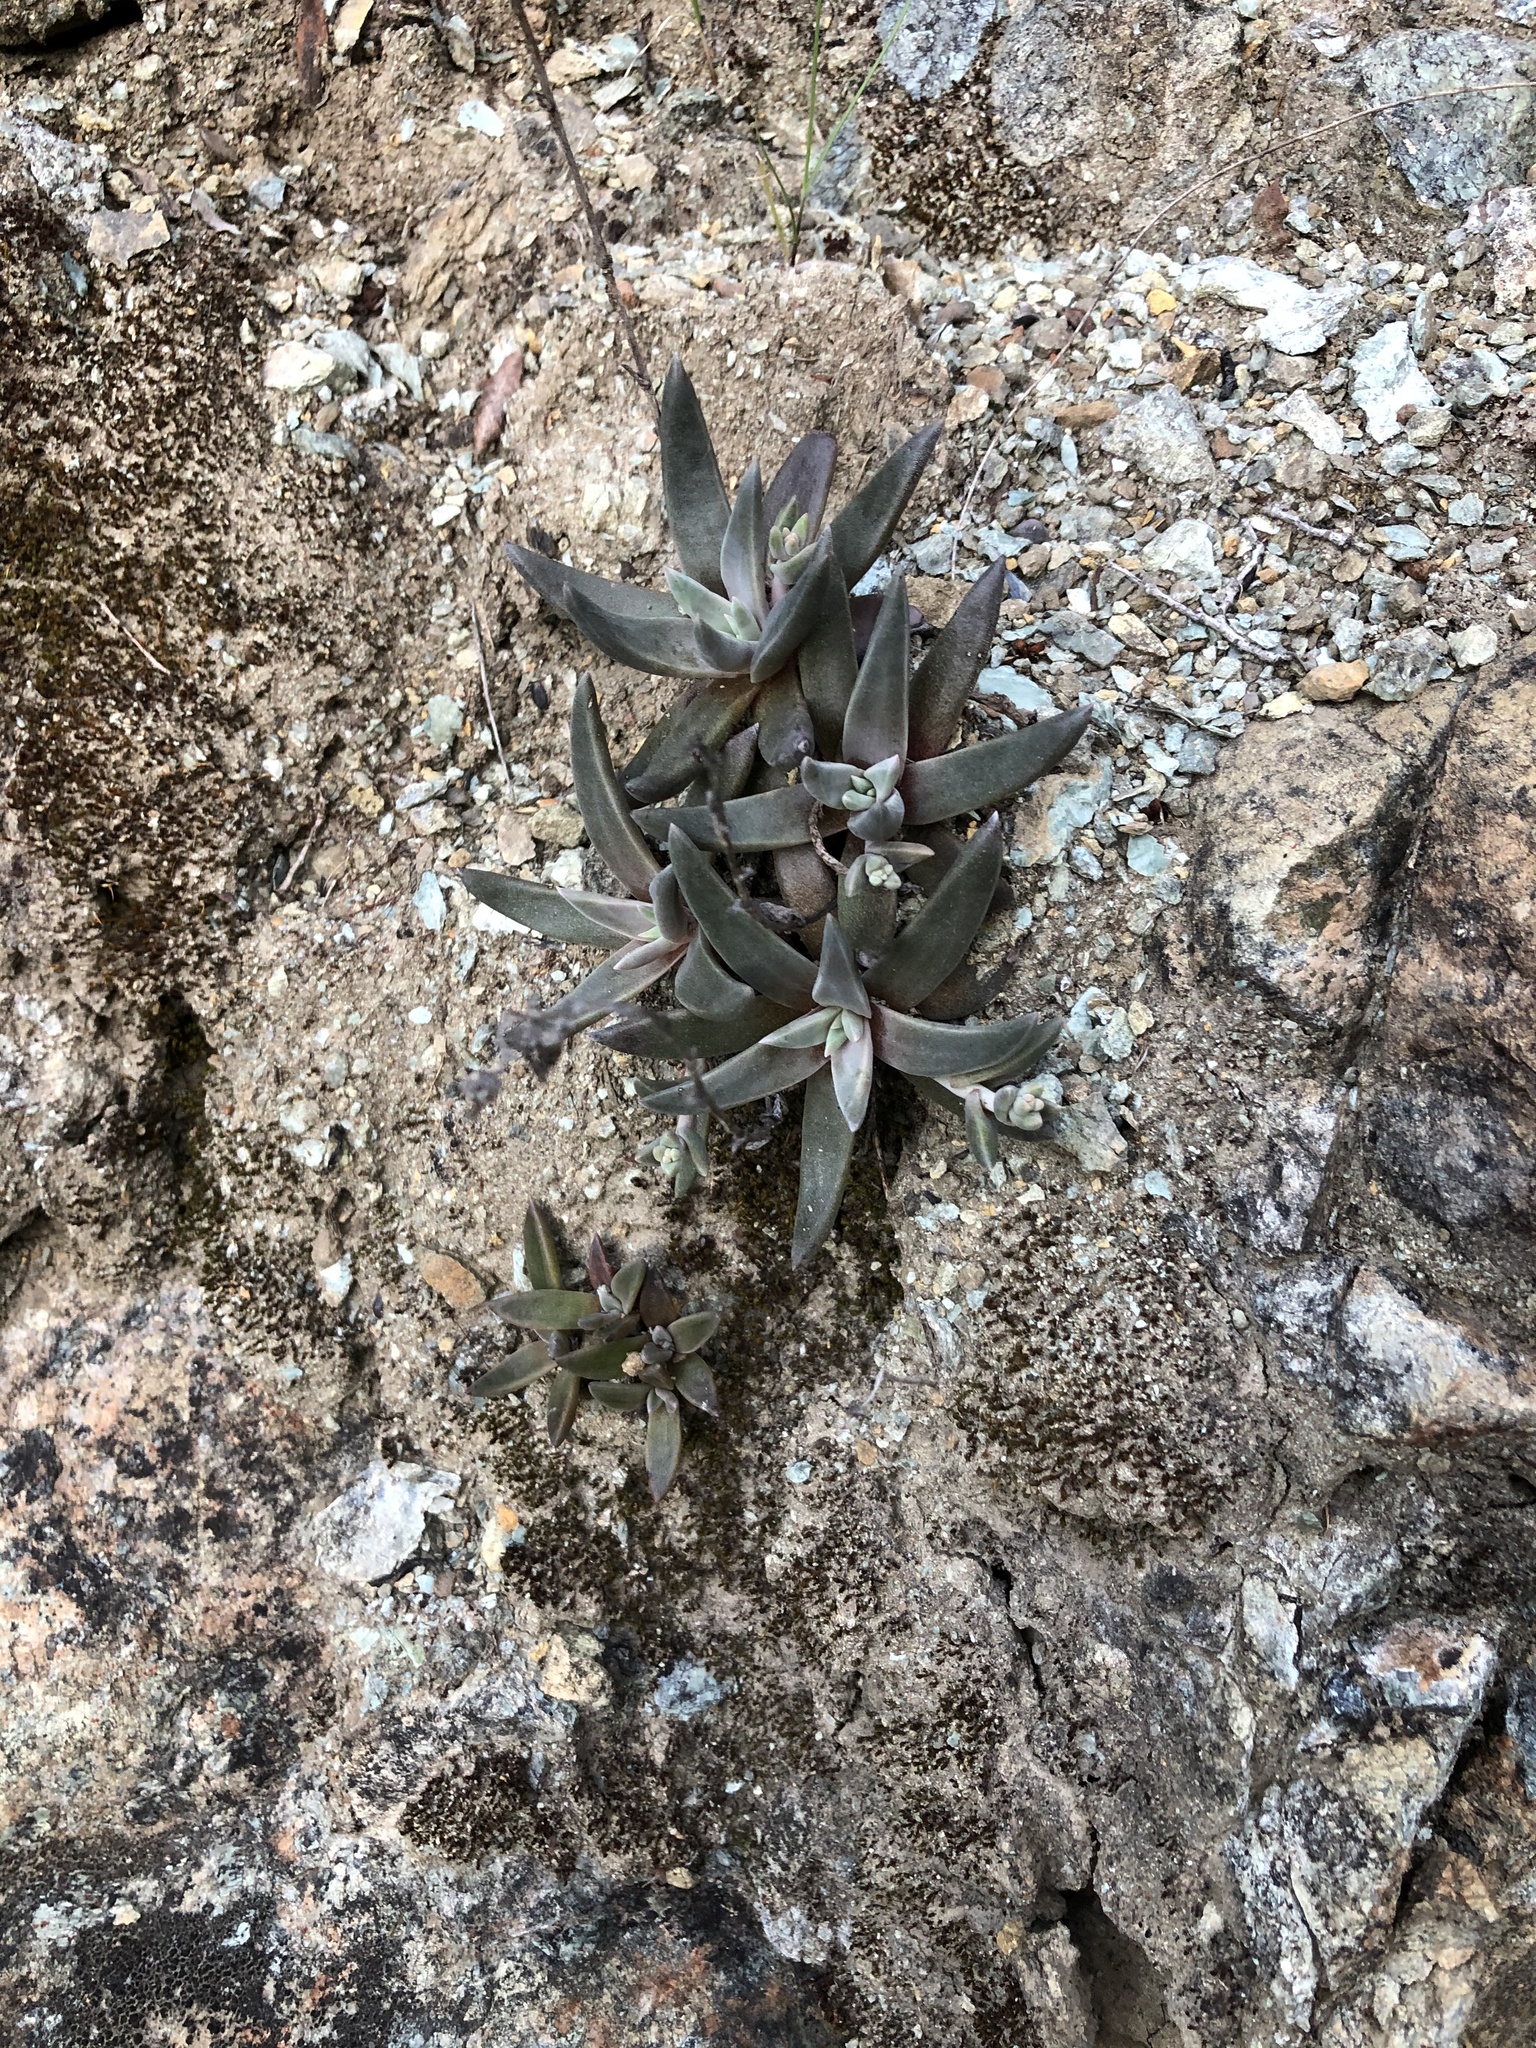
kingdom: Plantae
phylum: Tracheophyta
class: Magnoliopsida
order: Saxifragales
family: Crassulaceae
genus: Dudleya
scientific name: Dudleya abramsii
